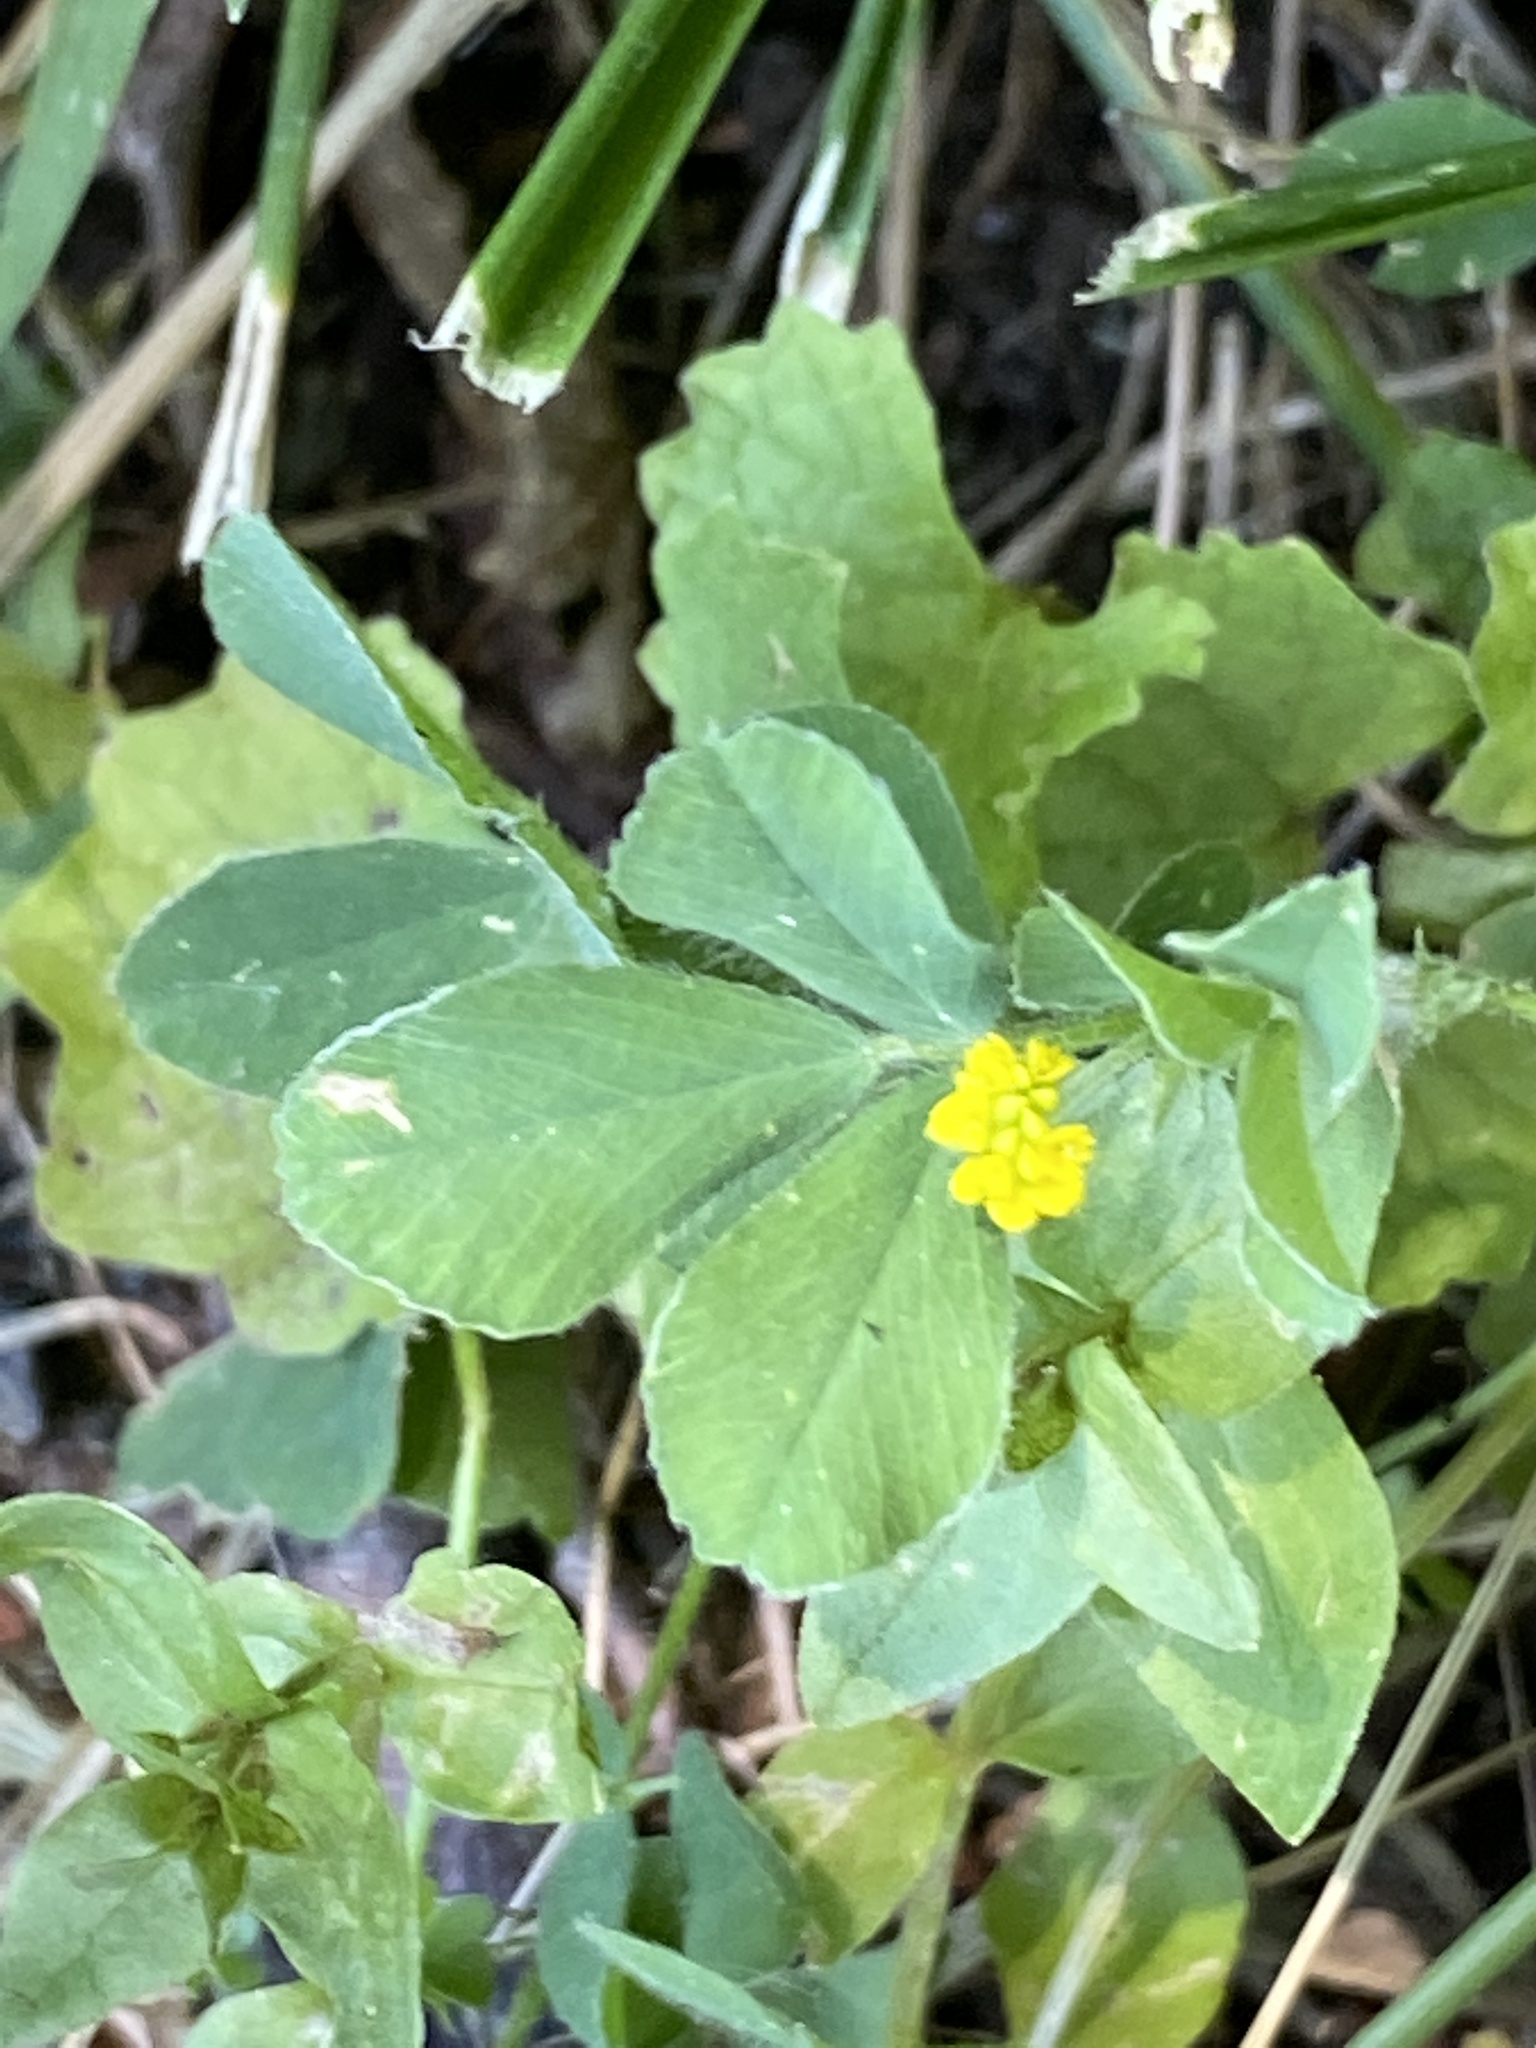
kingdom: Plantae
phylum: Tracheophyta
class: Magnoliopsida
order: Fabales
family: Fabaceae
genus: Medicago
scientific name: Medicago lupulina
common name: Black medick
